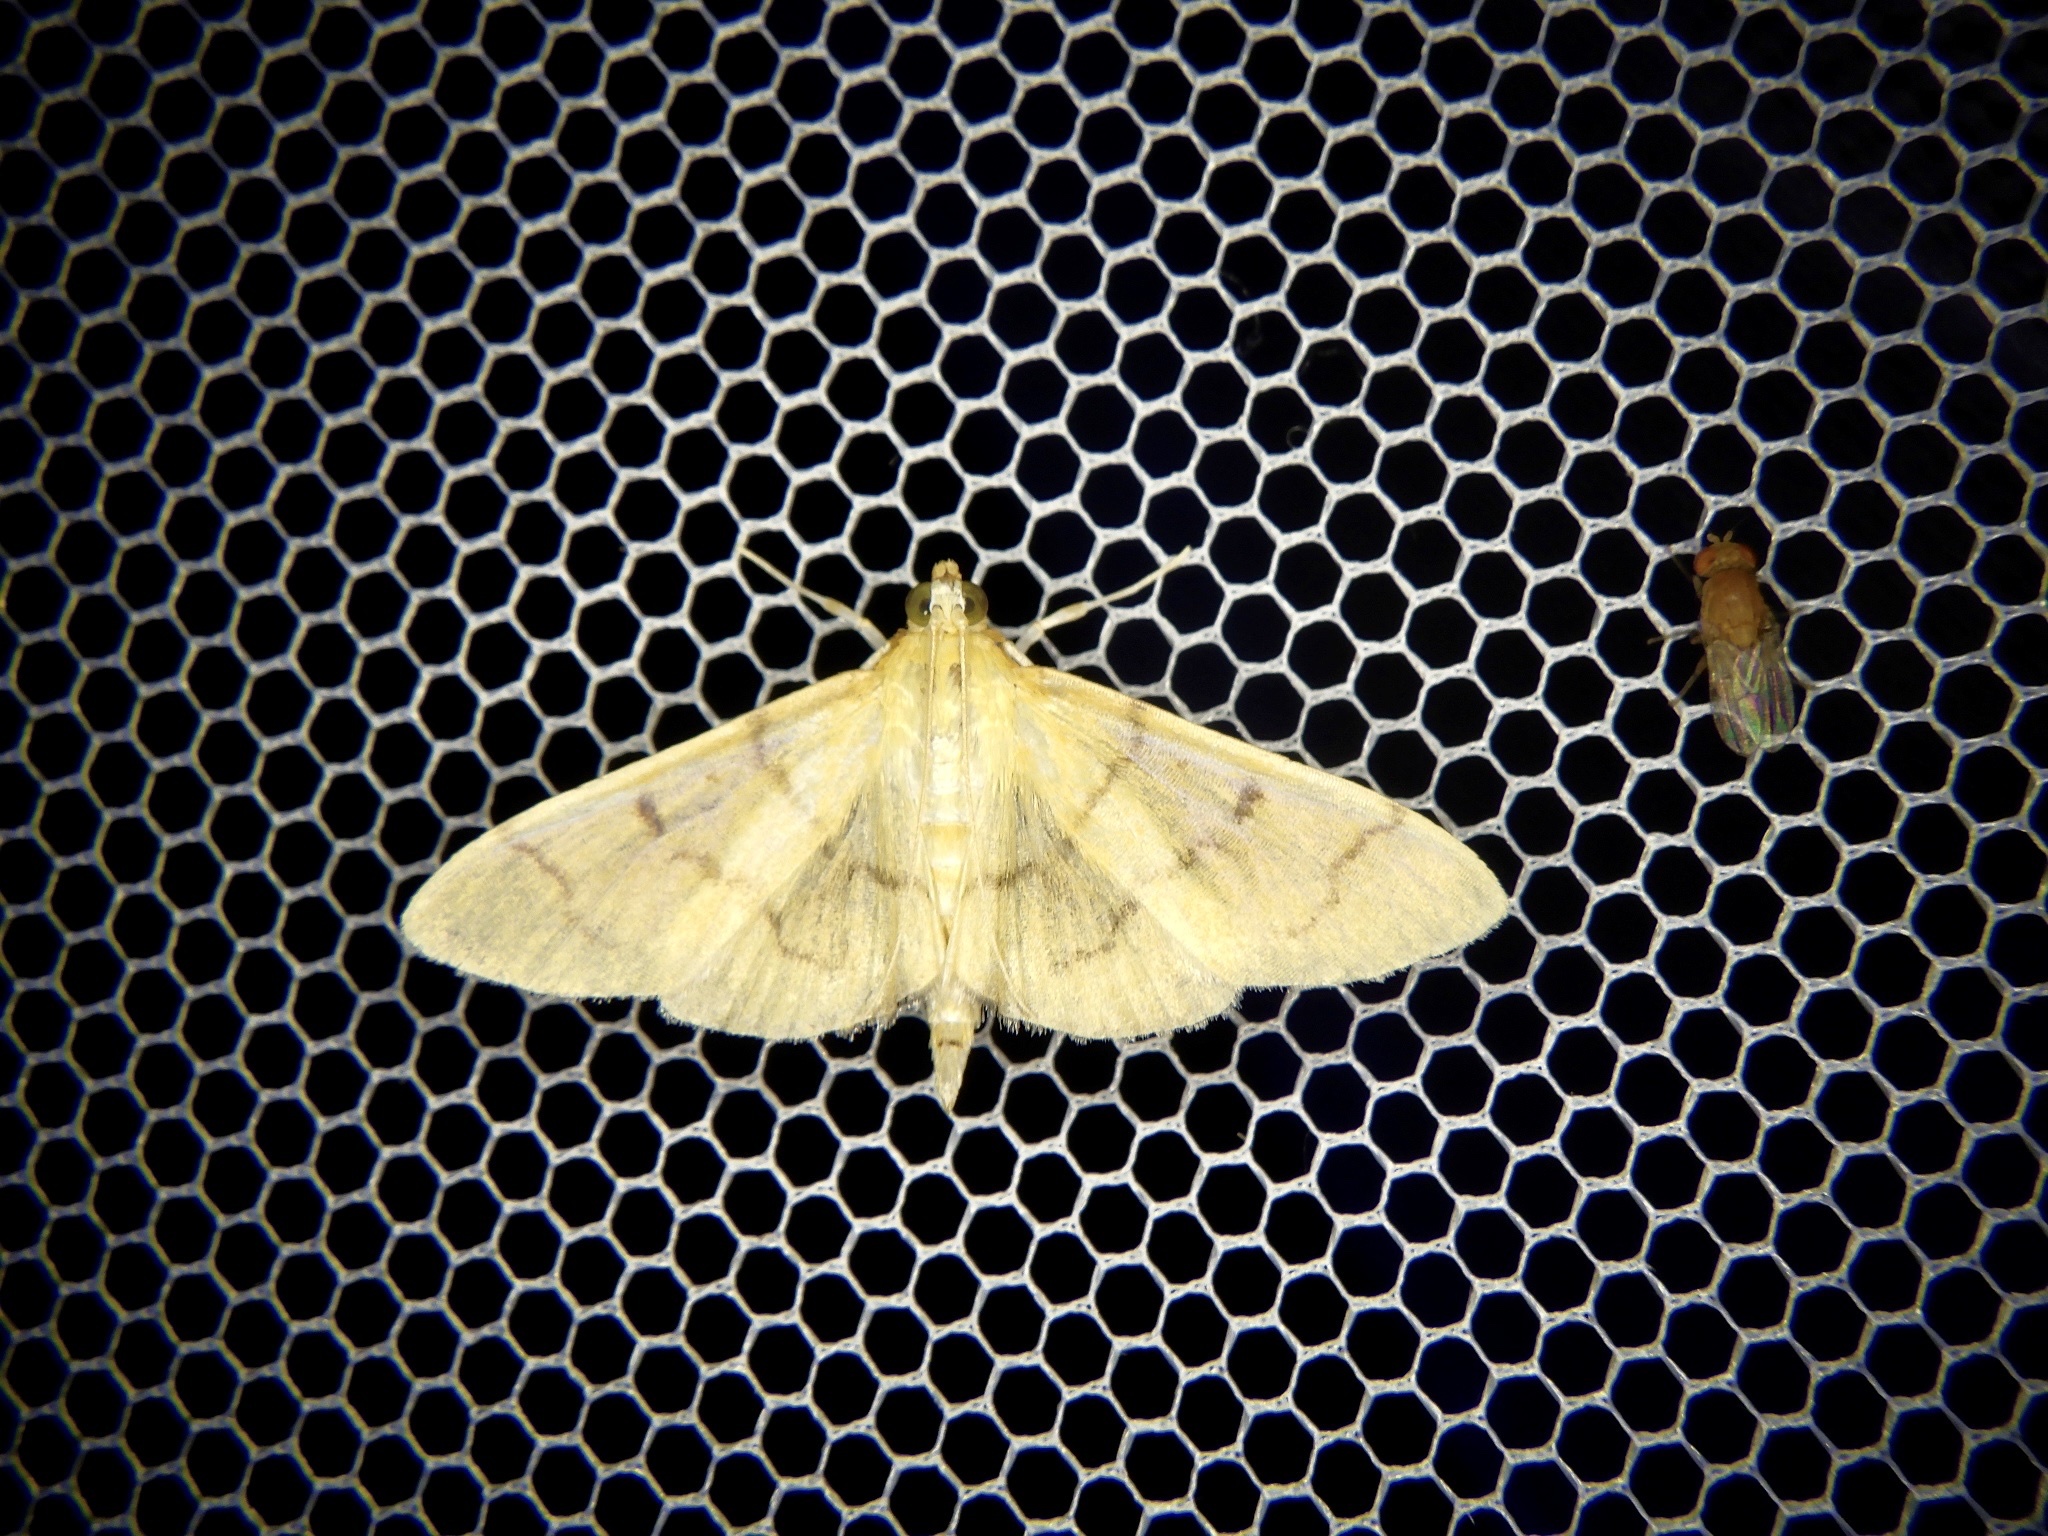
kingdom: Animalia
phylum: Arthropoda
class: Insecta
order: Lepidoptera
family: Crambidae
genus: Patania
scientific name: Patania chlorophanta
